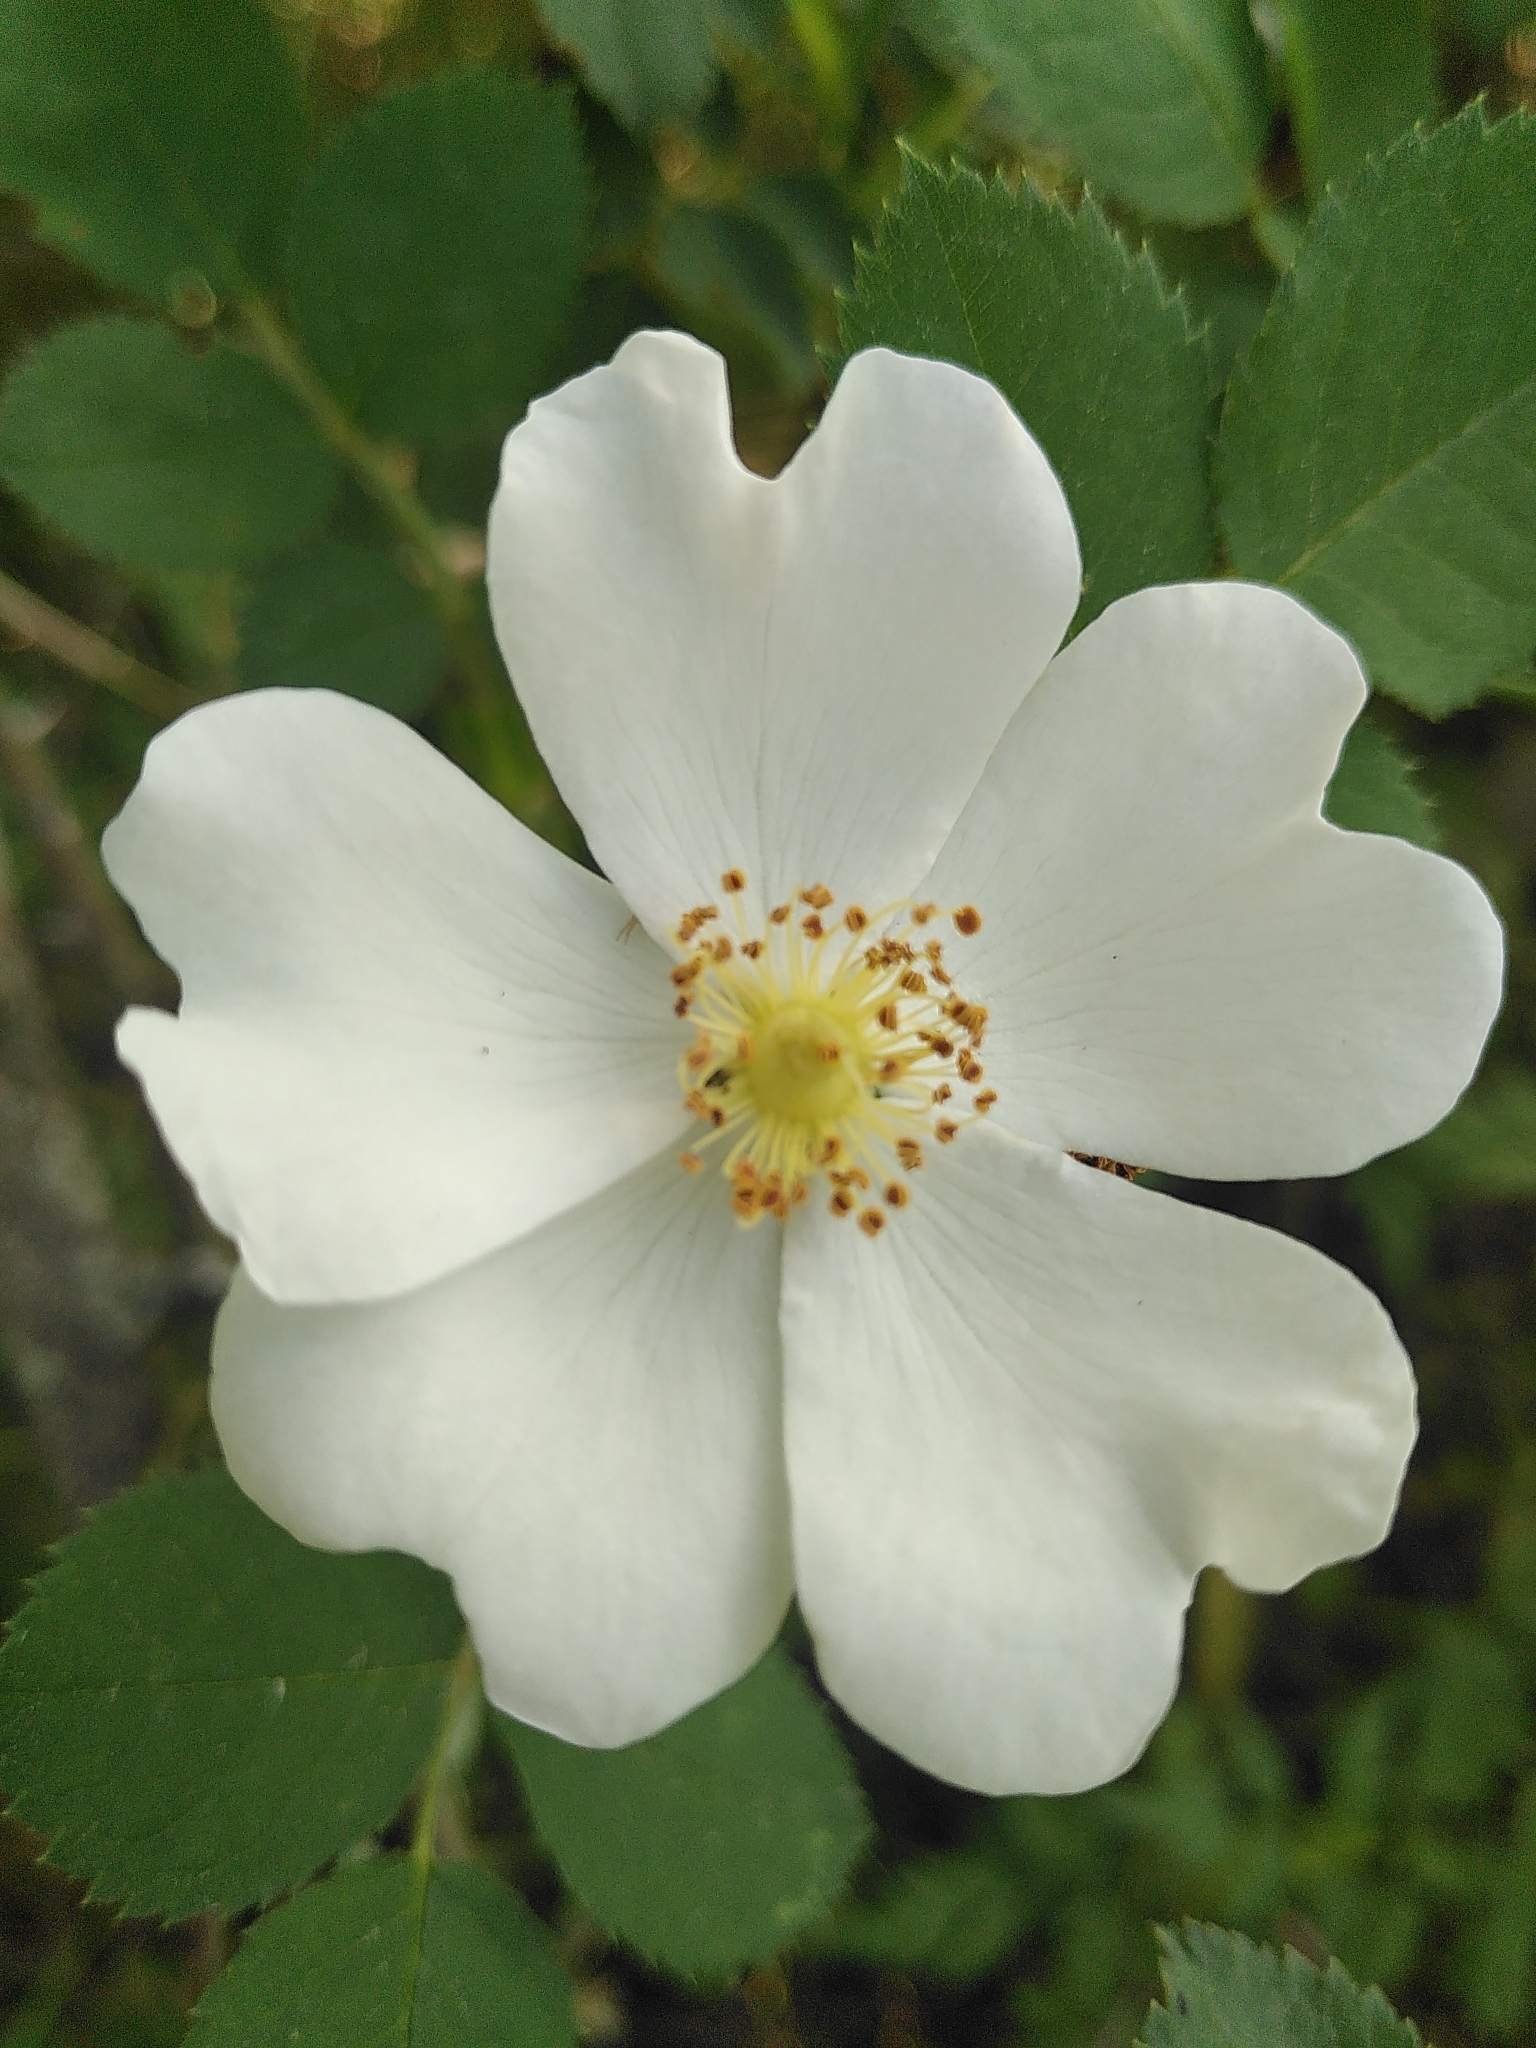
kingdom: Plantae
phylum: Tracheophyta
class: Magnoliopsida
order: Rosales
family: Rosaceae
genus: Rosa
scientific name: Rosa canina
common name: Dog rose
